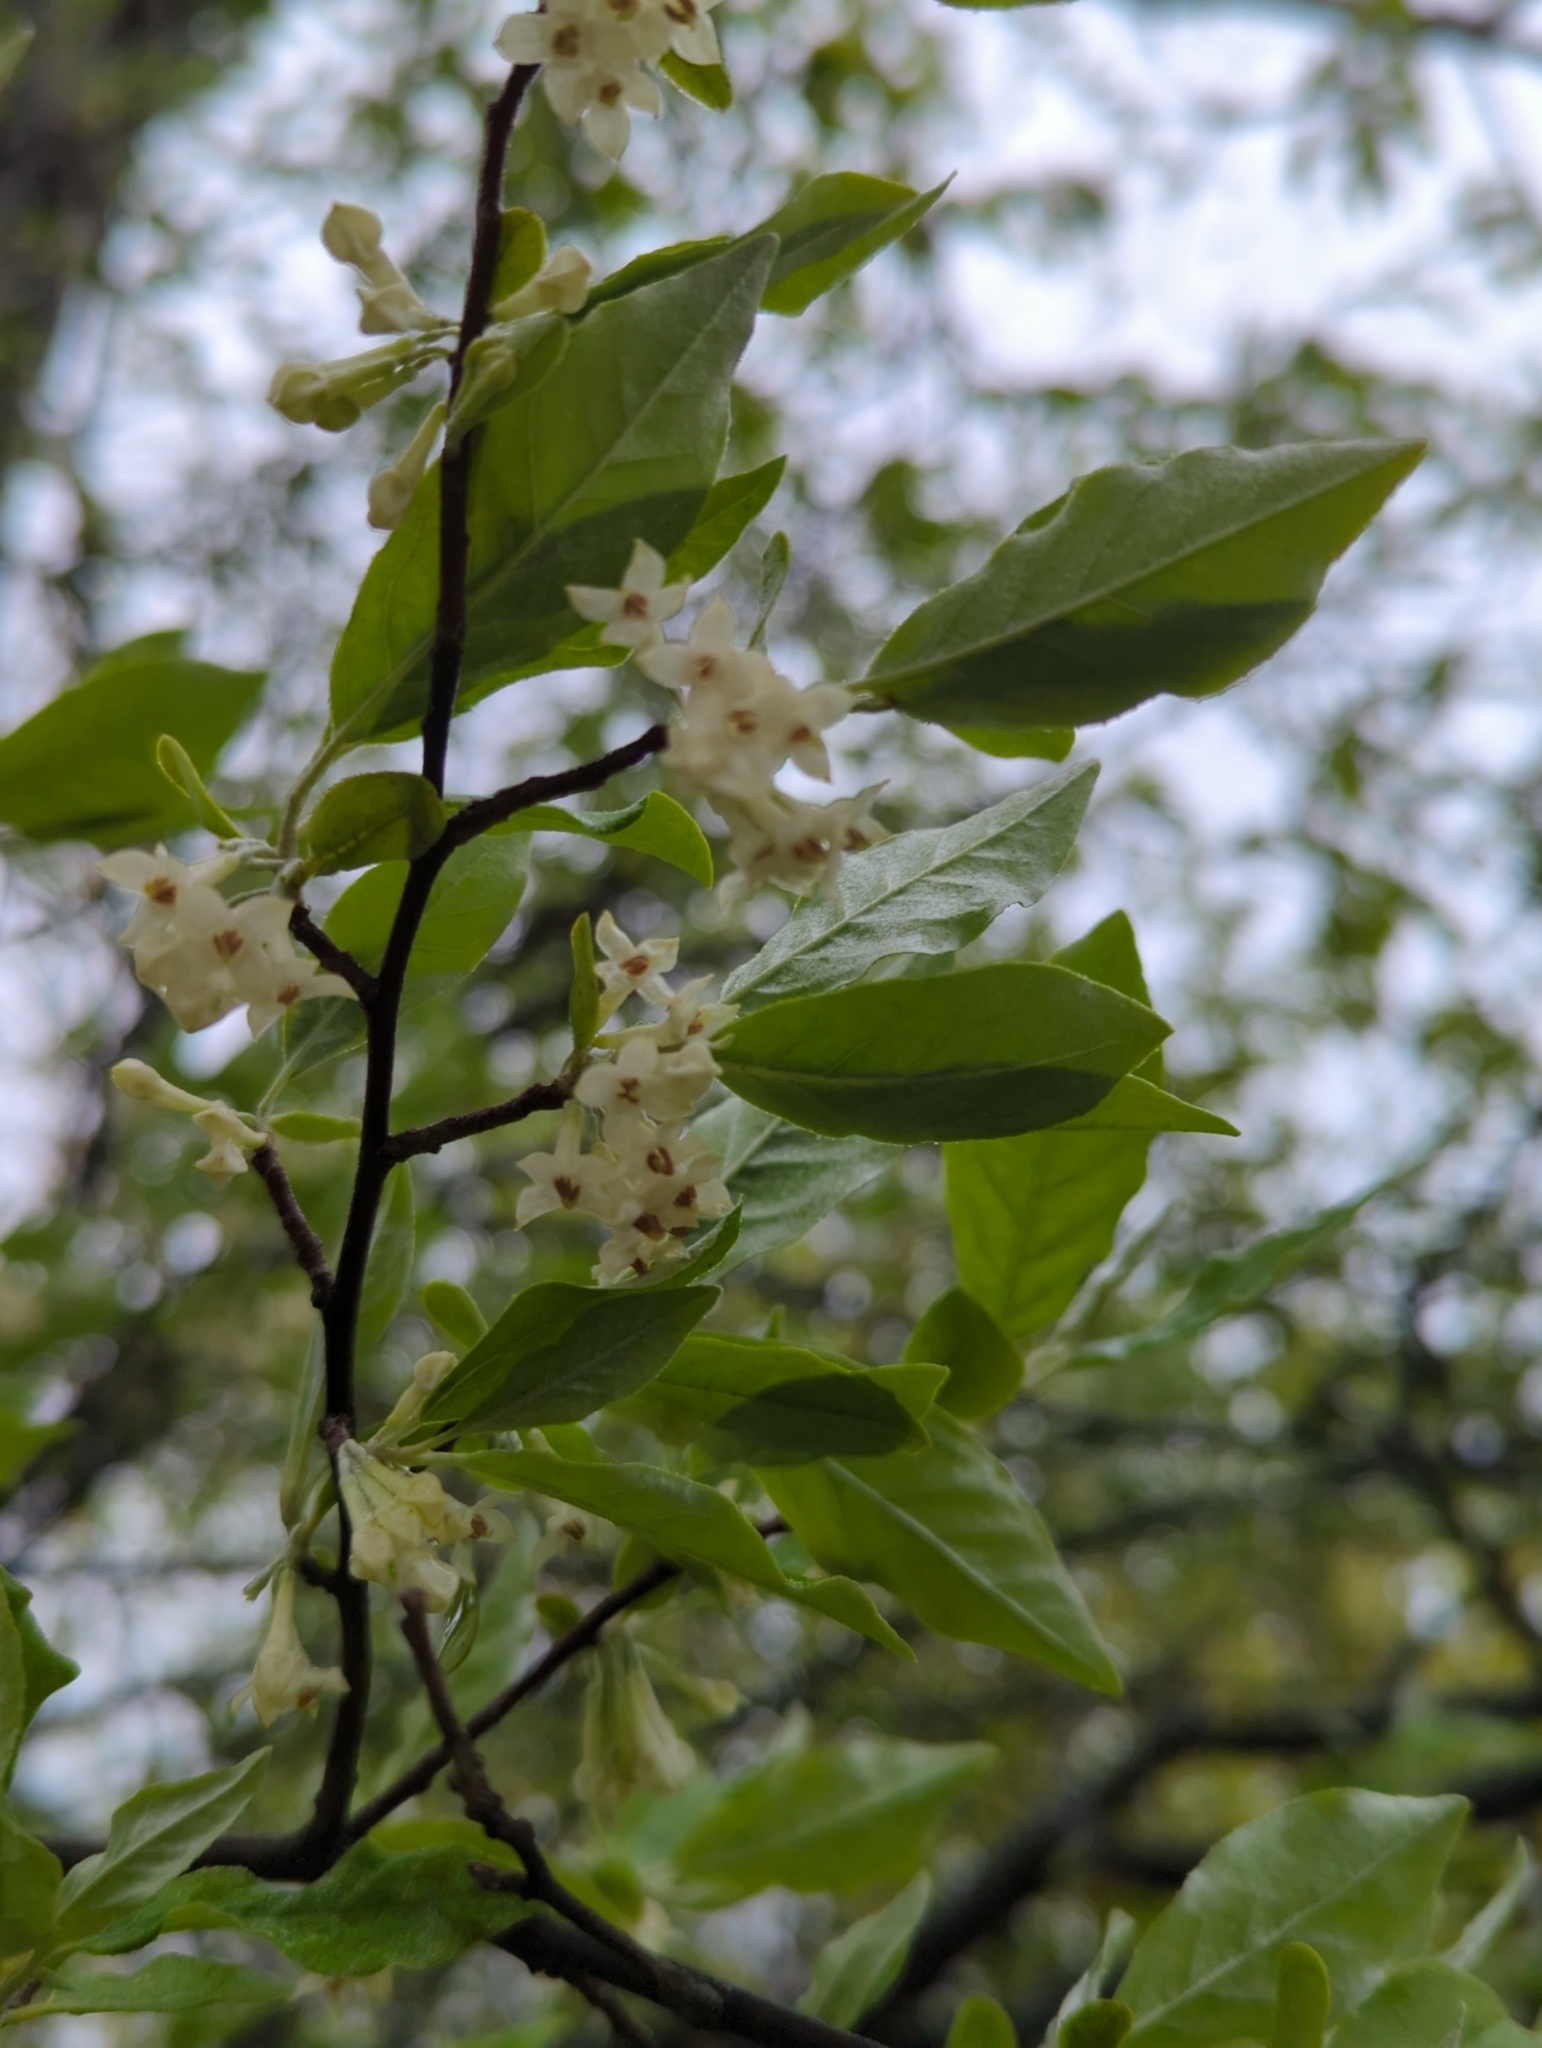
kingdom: Plantae
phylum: Tracheophyta
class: Magnoliopsida
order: Rosales
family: Elaeagnaceae
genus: Elaeagnus
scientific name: Elaeagnus umbellata
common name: Autumn olive
